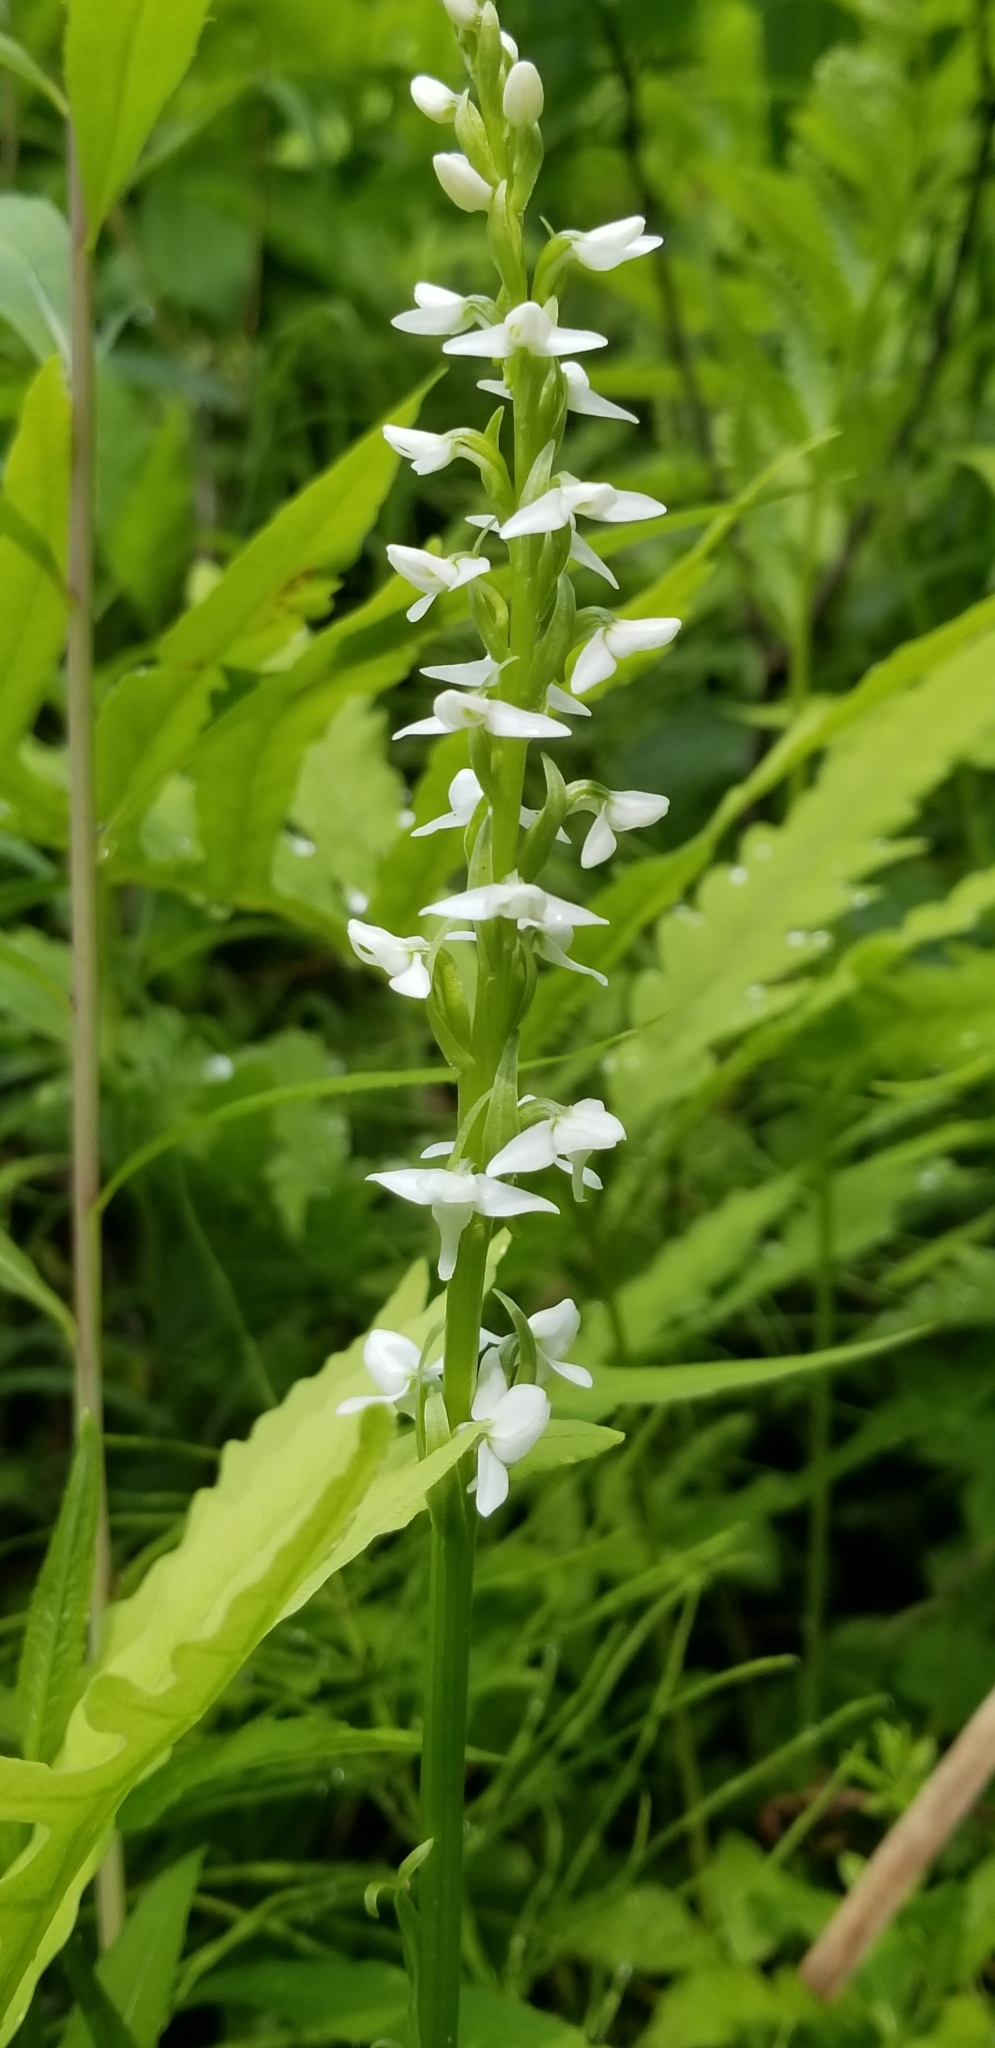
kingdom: Plantae
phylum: Tracheophyta
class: Liliopsida
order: Asparagales
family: Orchidaceae
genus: Platanthera
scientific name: Platanthera dilatata
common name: Bog candles
